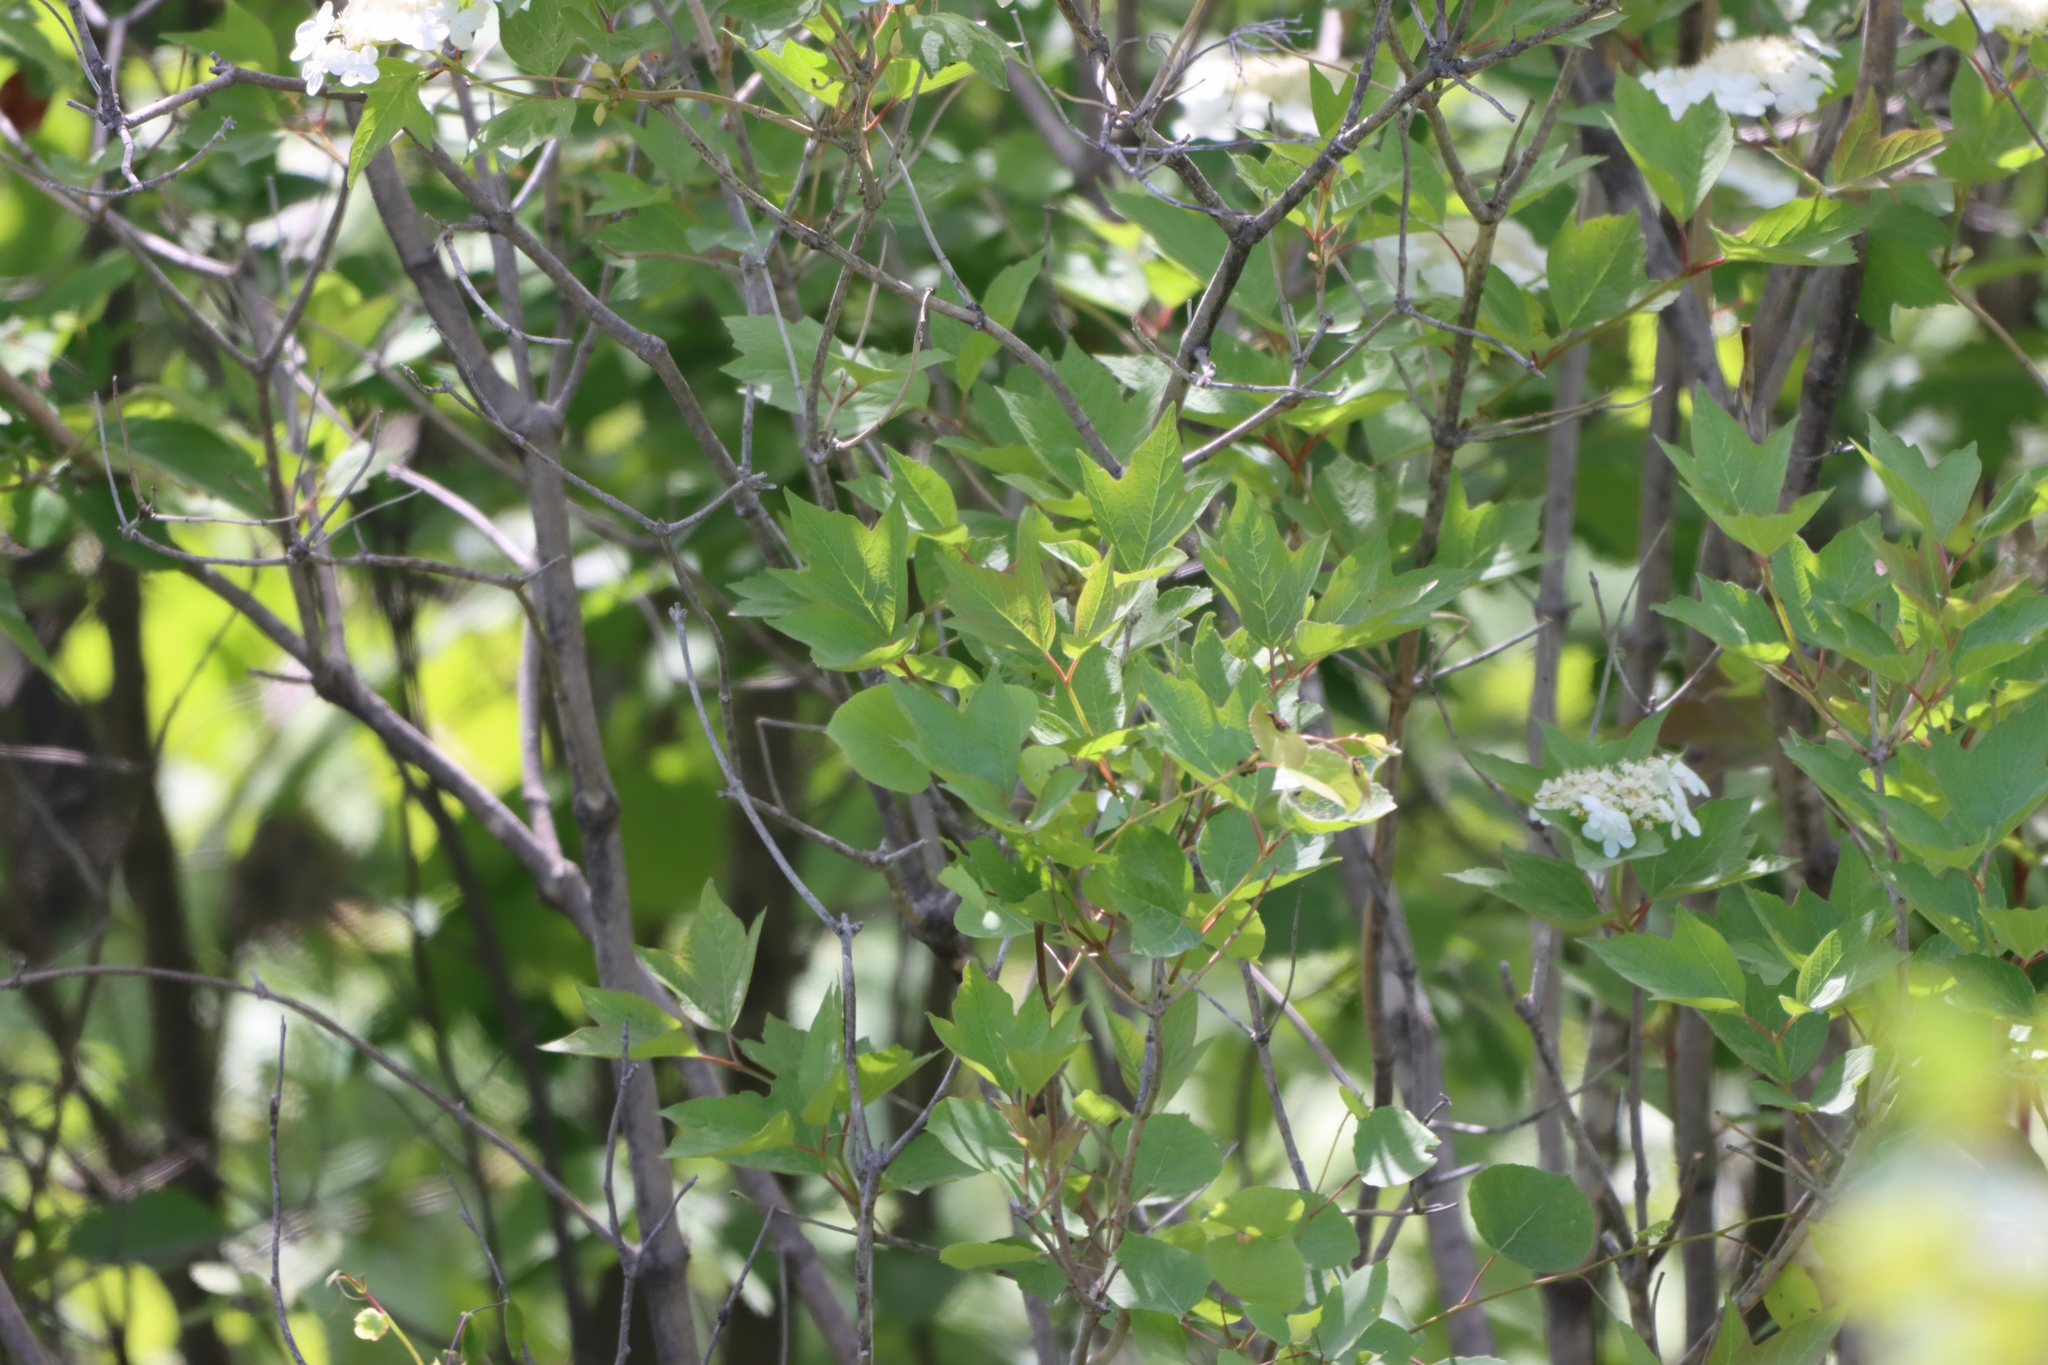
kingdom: Plantae
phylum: Tracheophyta
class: Magnoliopsida
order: Dipsacales
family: Viburnaceae
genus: Viburnum
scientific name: Viburnum opulus
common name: Guelder-rose
